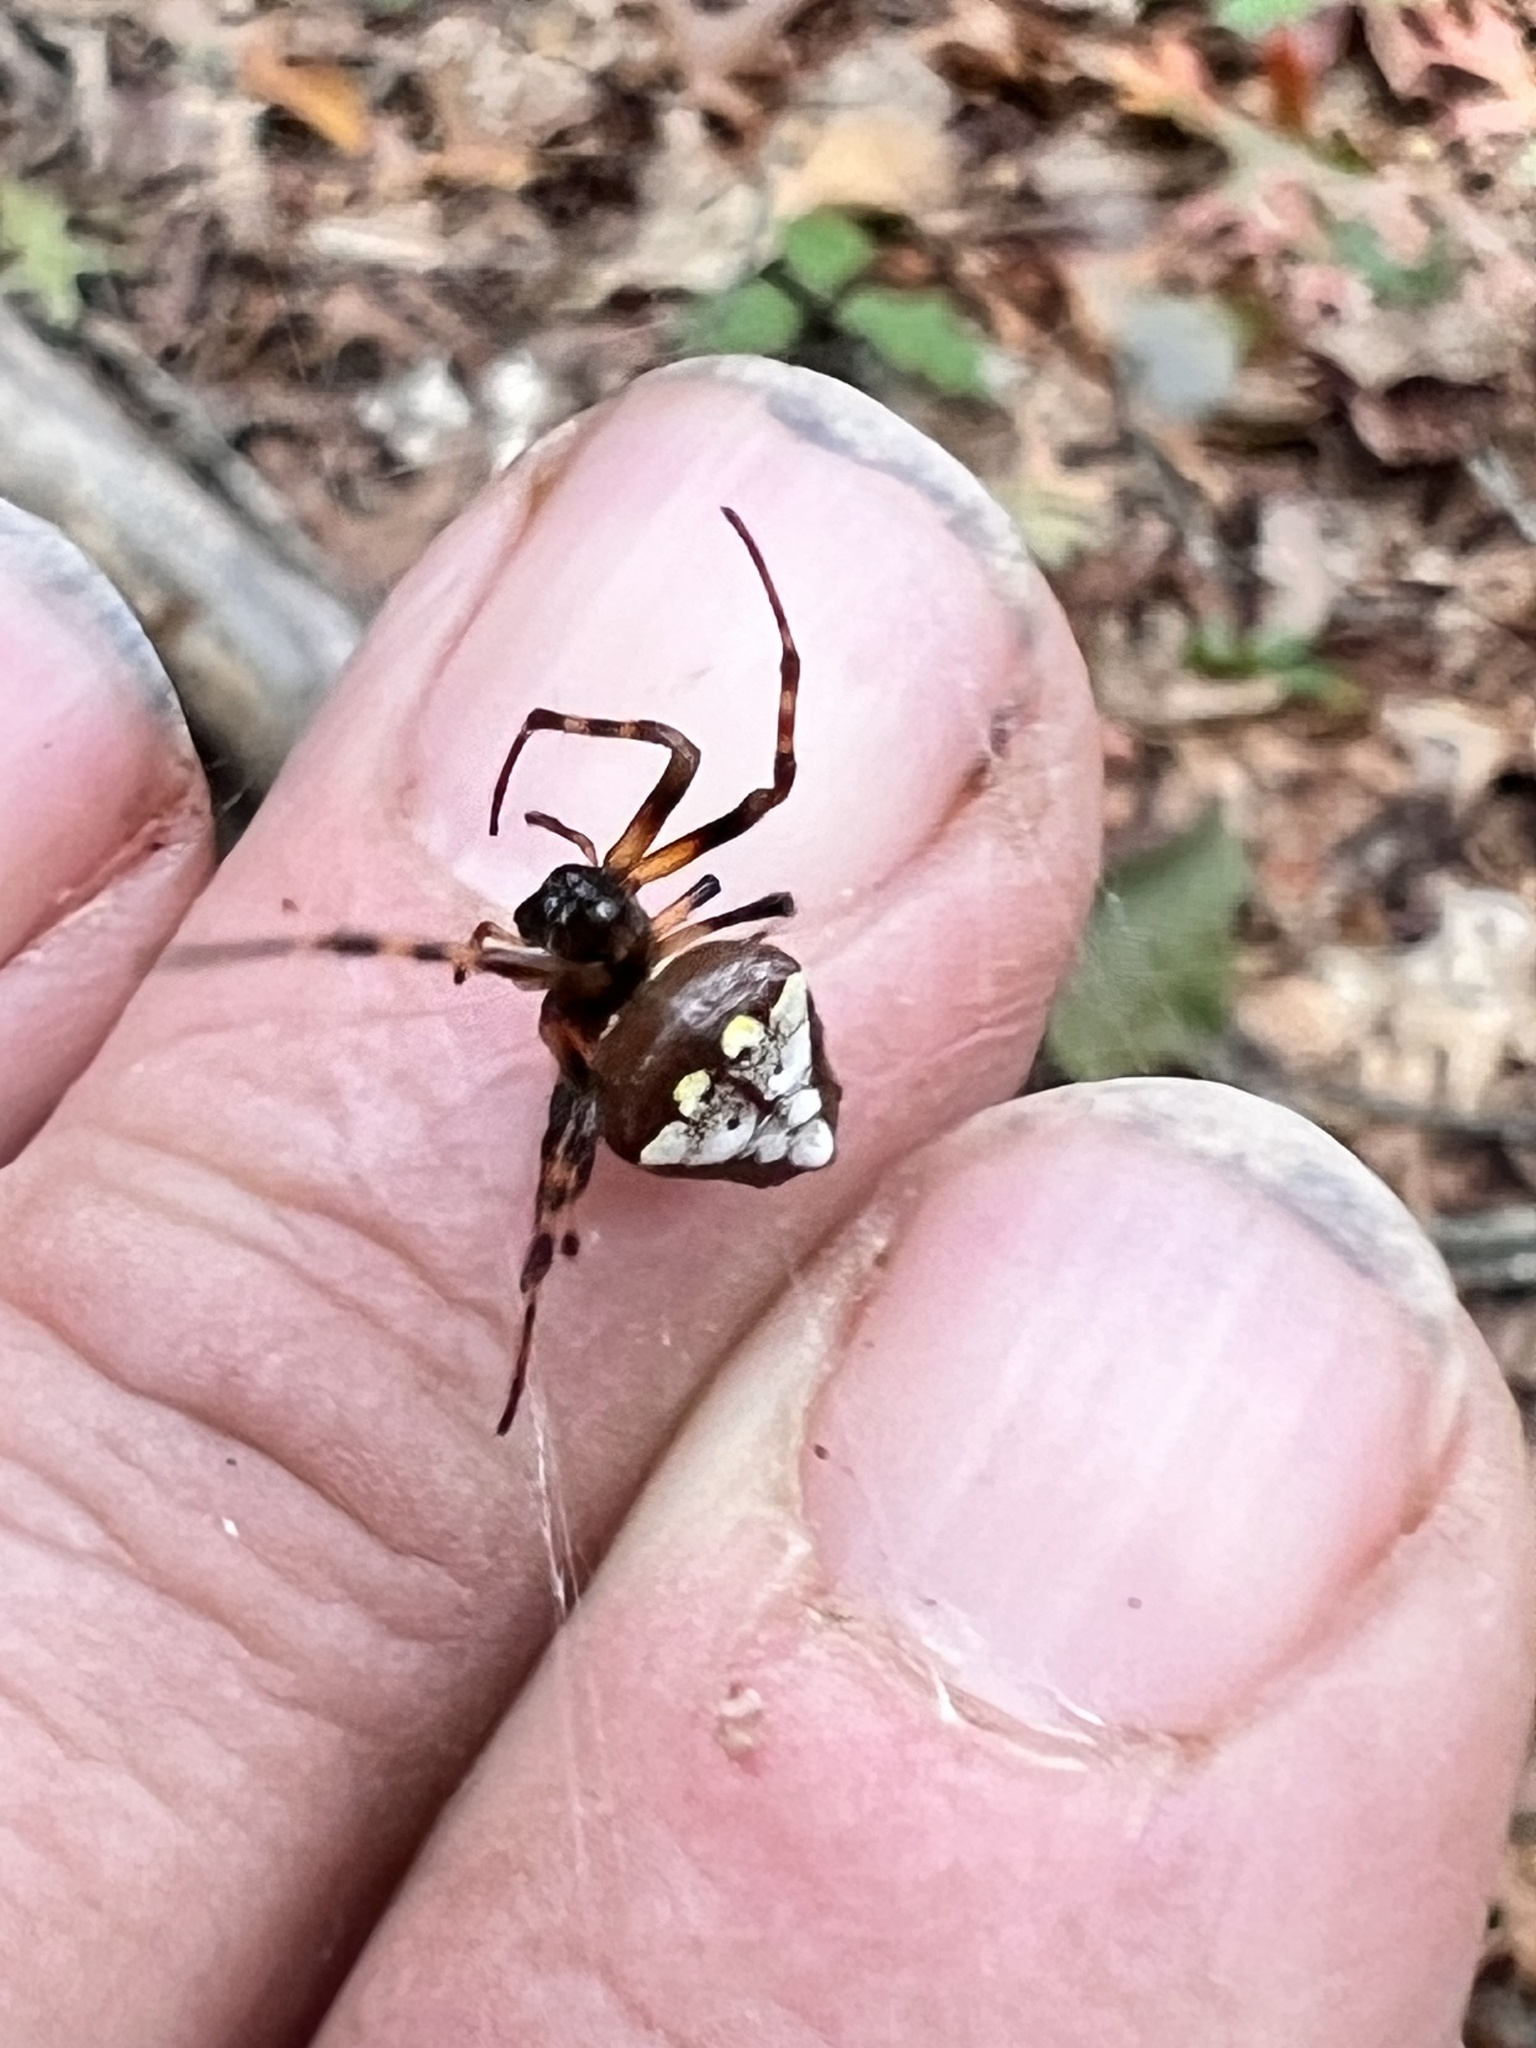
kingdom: Animalia
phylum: Arthropoda
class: Arachnida
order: Araneae
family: Araneidae
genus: Verrucosa
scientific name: Verrucosa arenata
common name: Orb weavers
